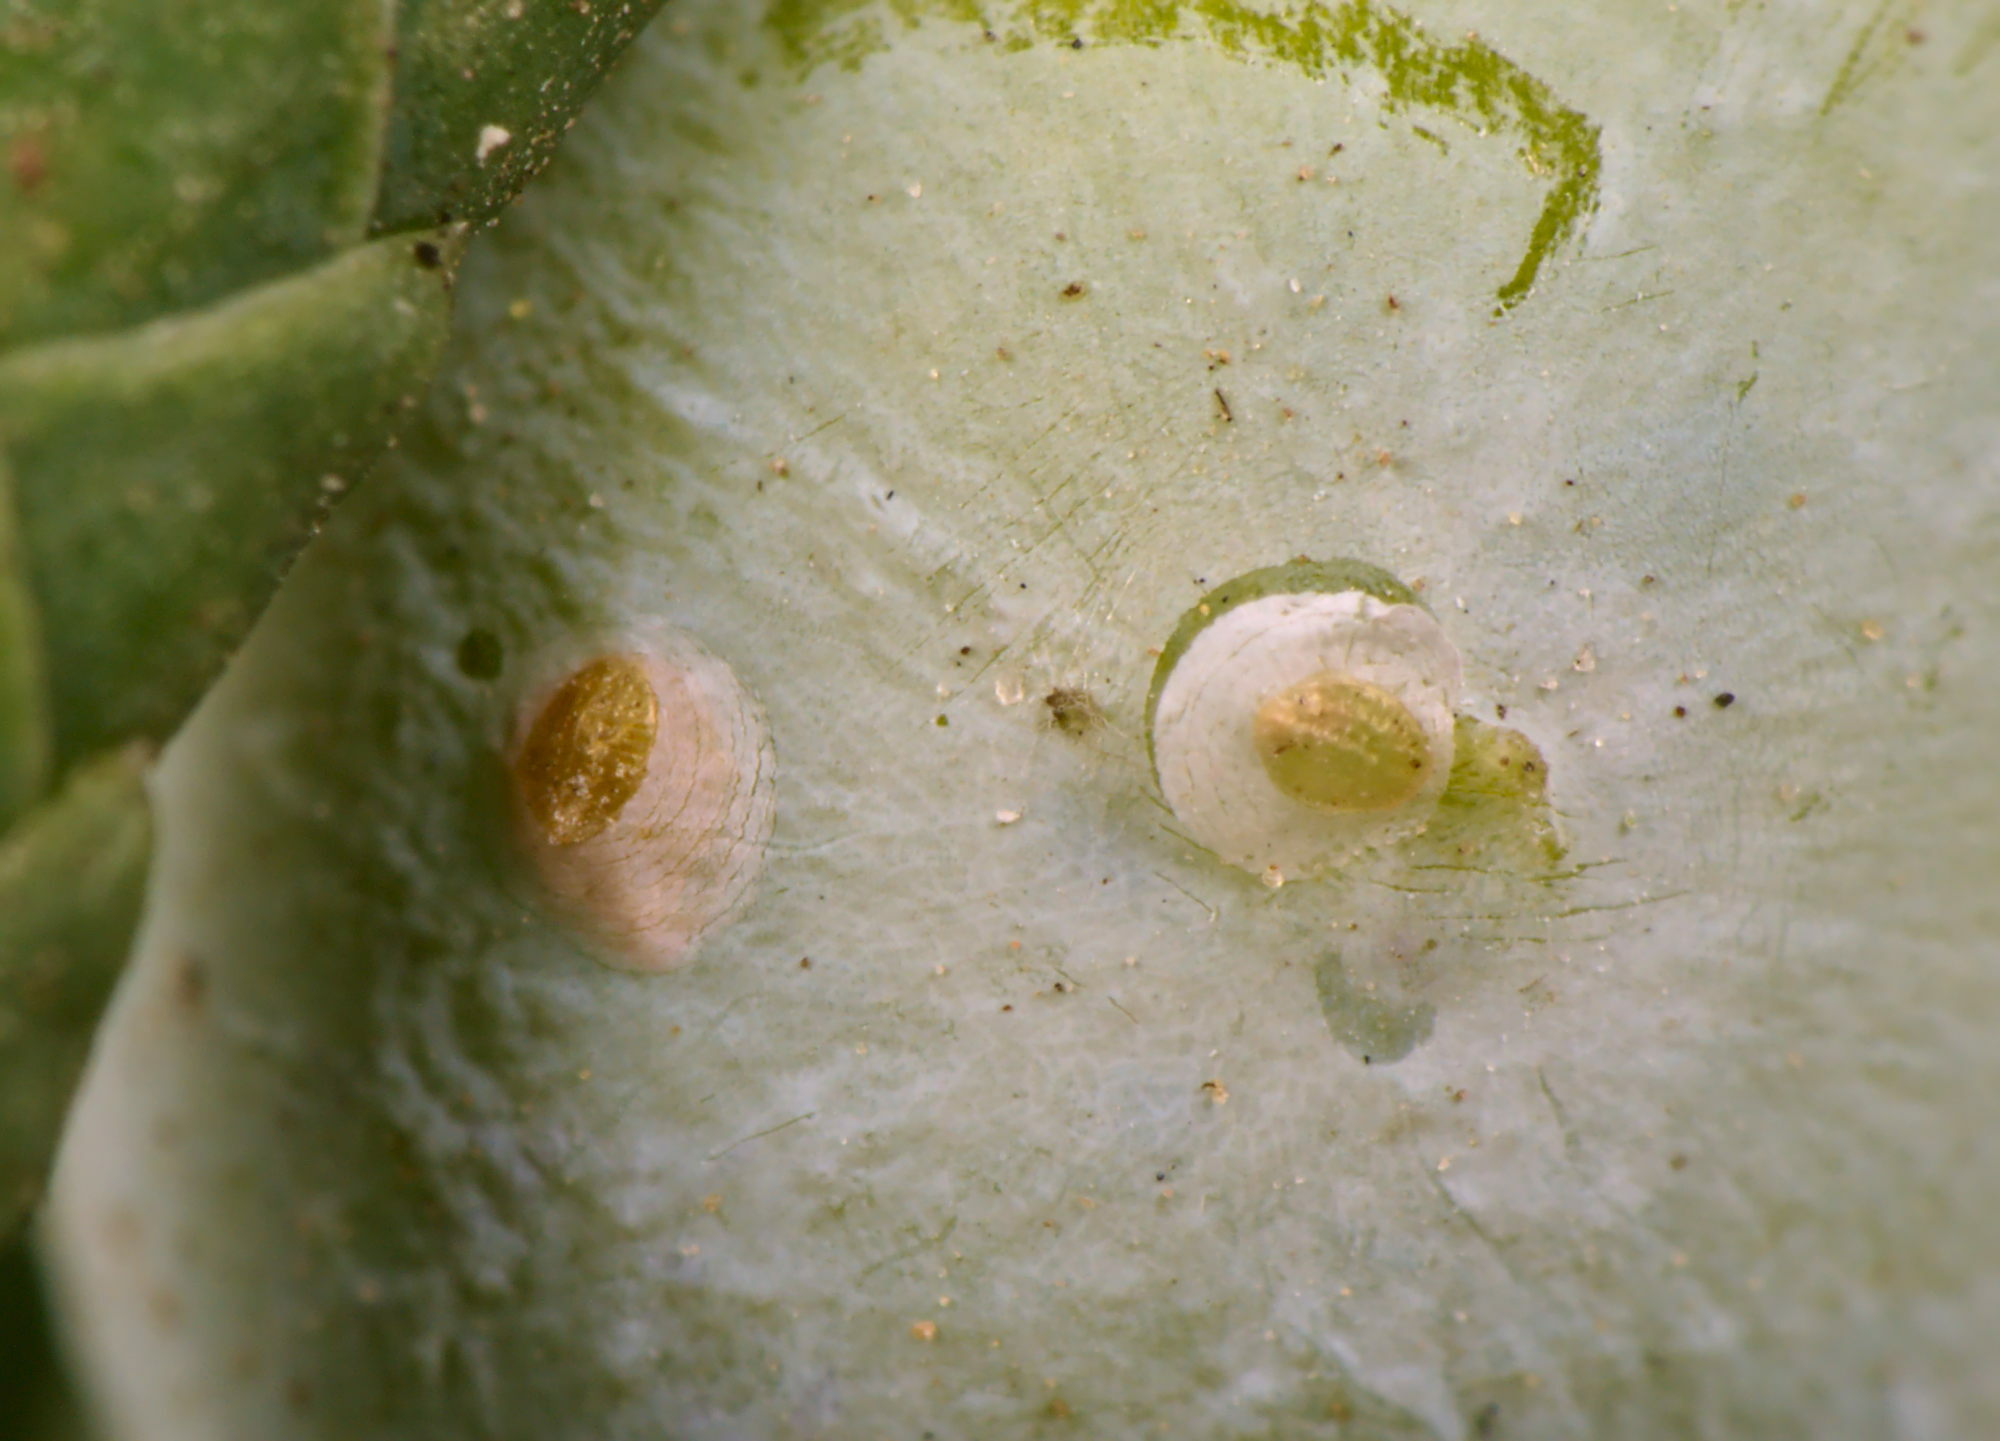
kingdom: Animalia
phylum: Arthropoda
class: Insecta
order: Hemiptera
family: Diaspididae
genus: Carulaspis
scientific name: Carulaspis juniperi
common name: Juniper scale
